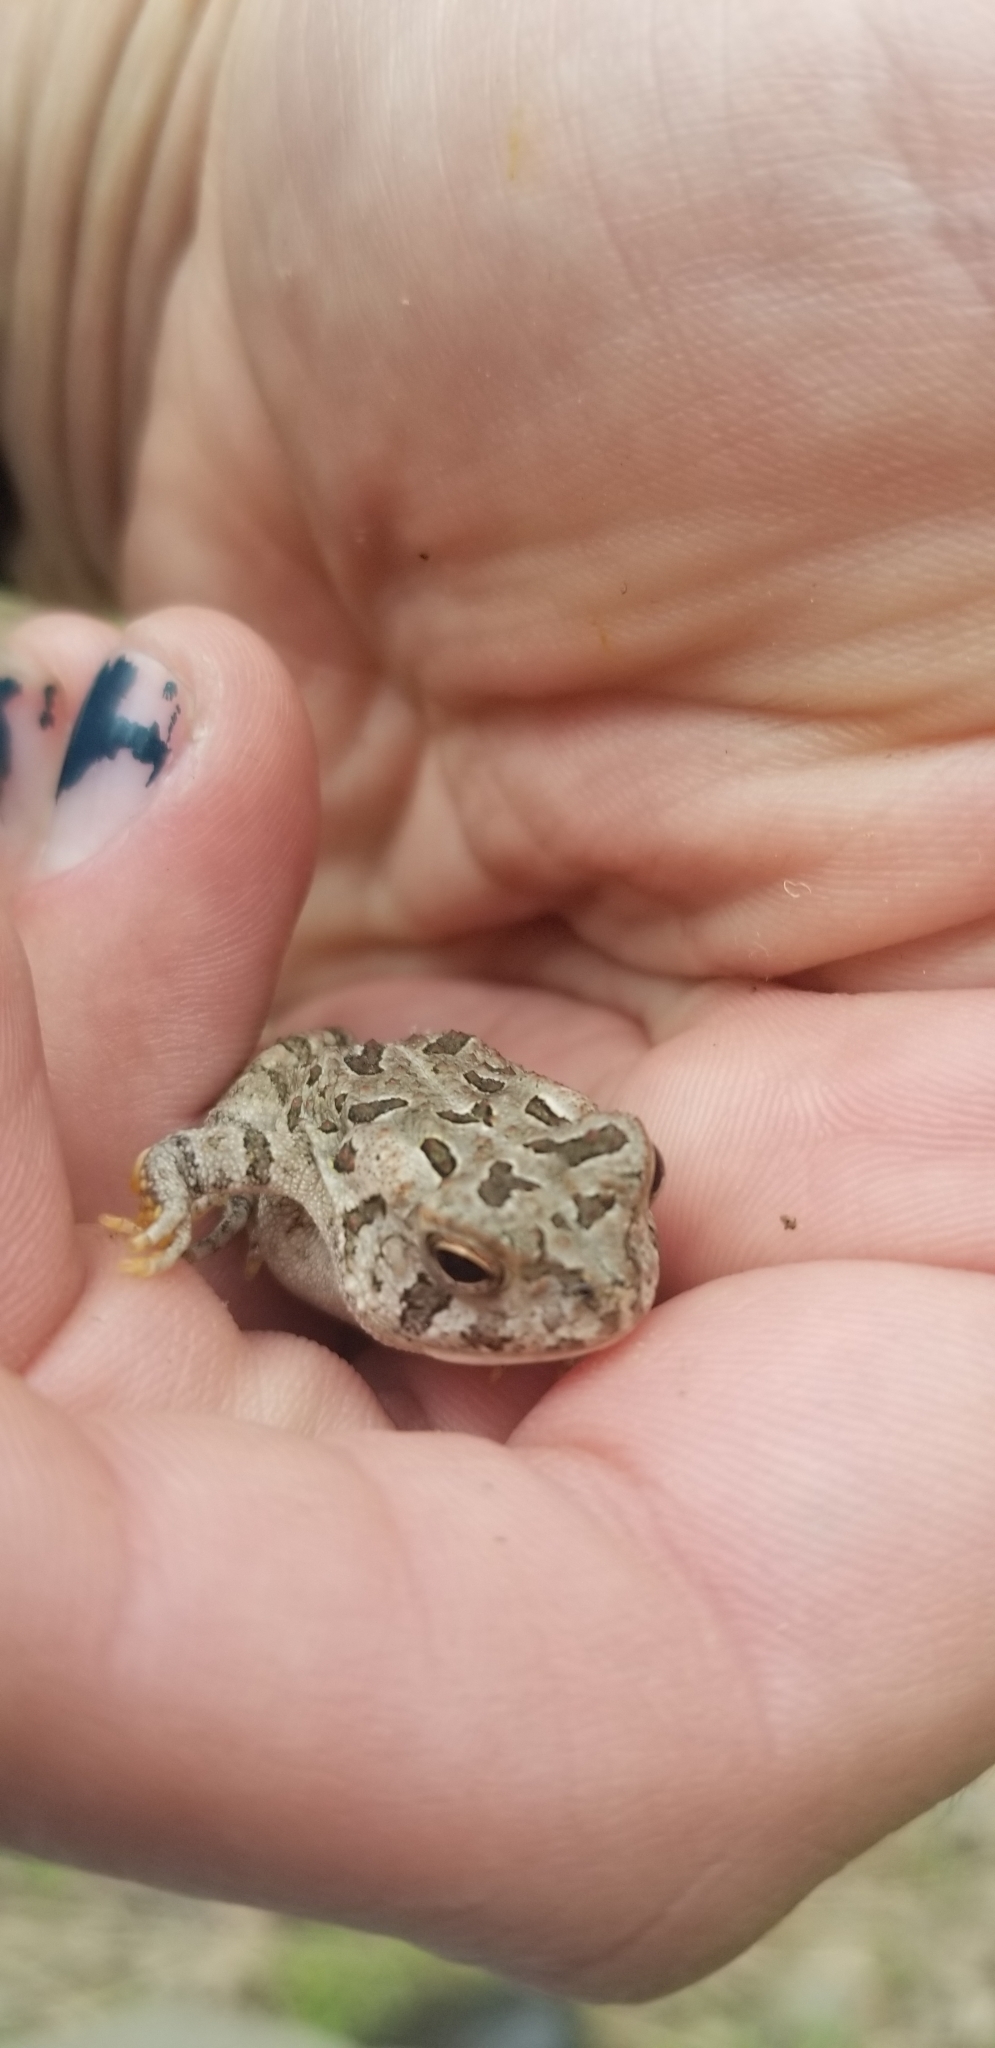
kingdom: Animalia
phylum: Chordata
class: Amphibia
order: Anura
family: Bufonidae
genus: Anaxyrus
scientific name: Anaxyrus fowleri
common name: Fowler's toad
